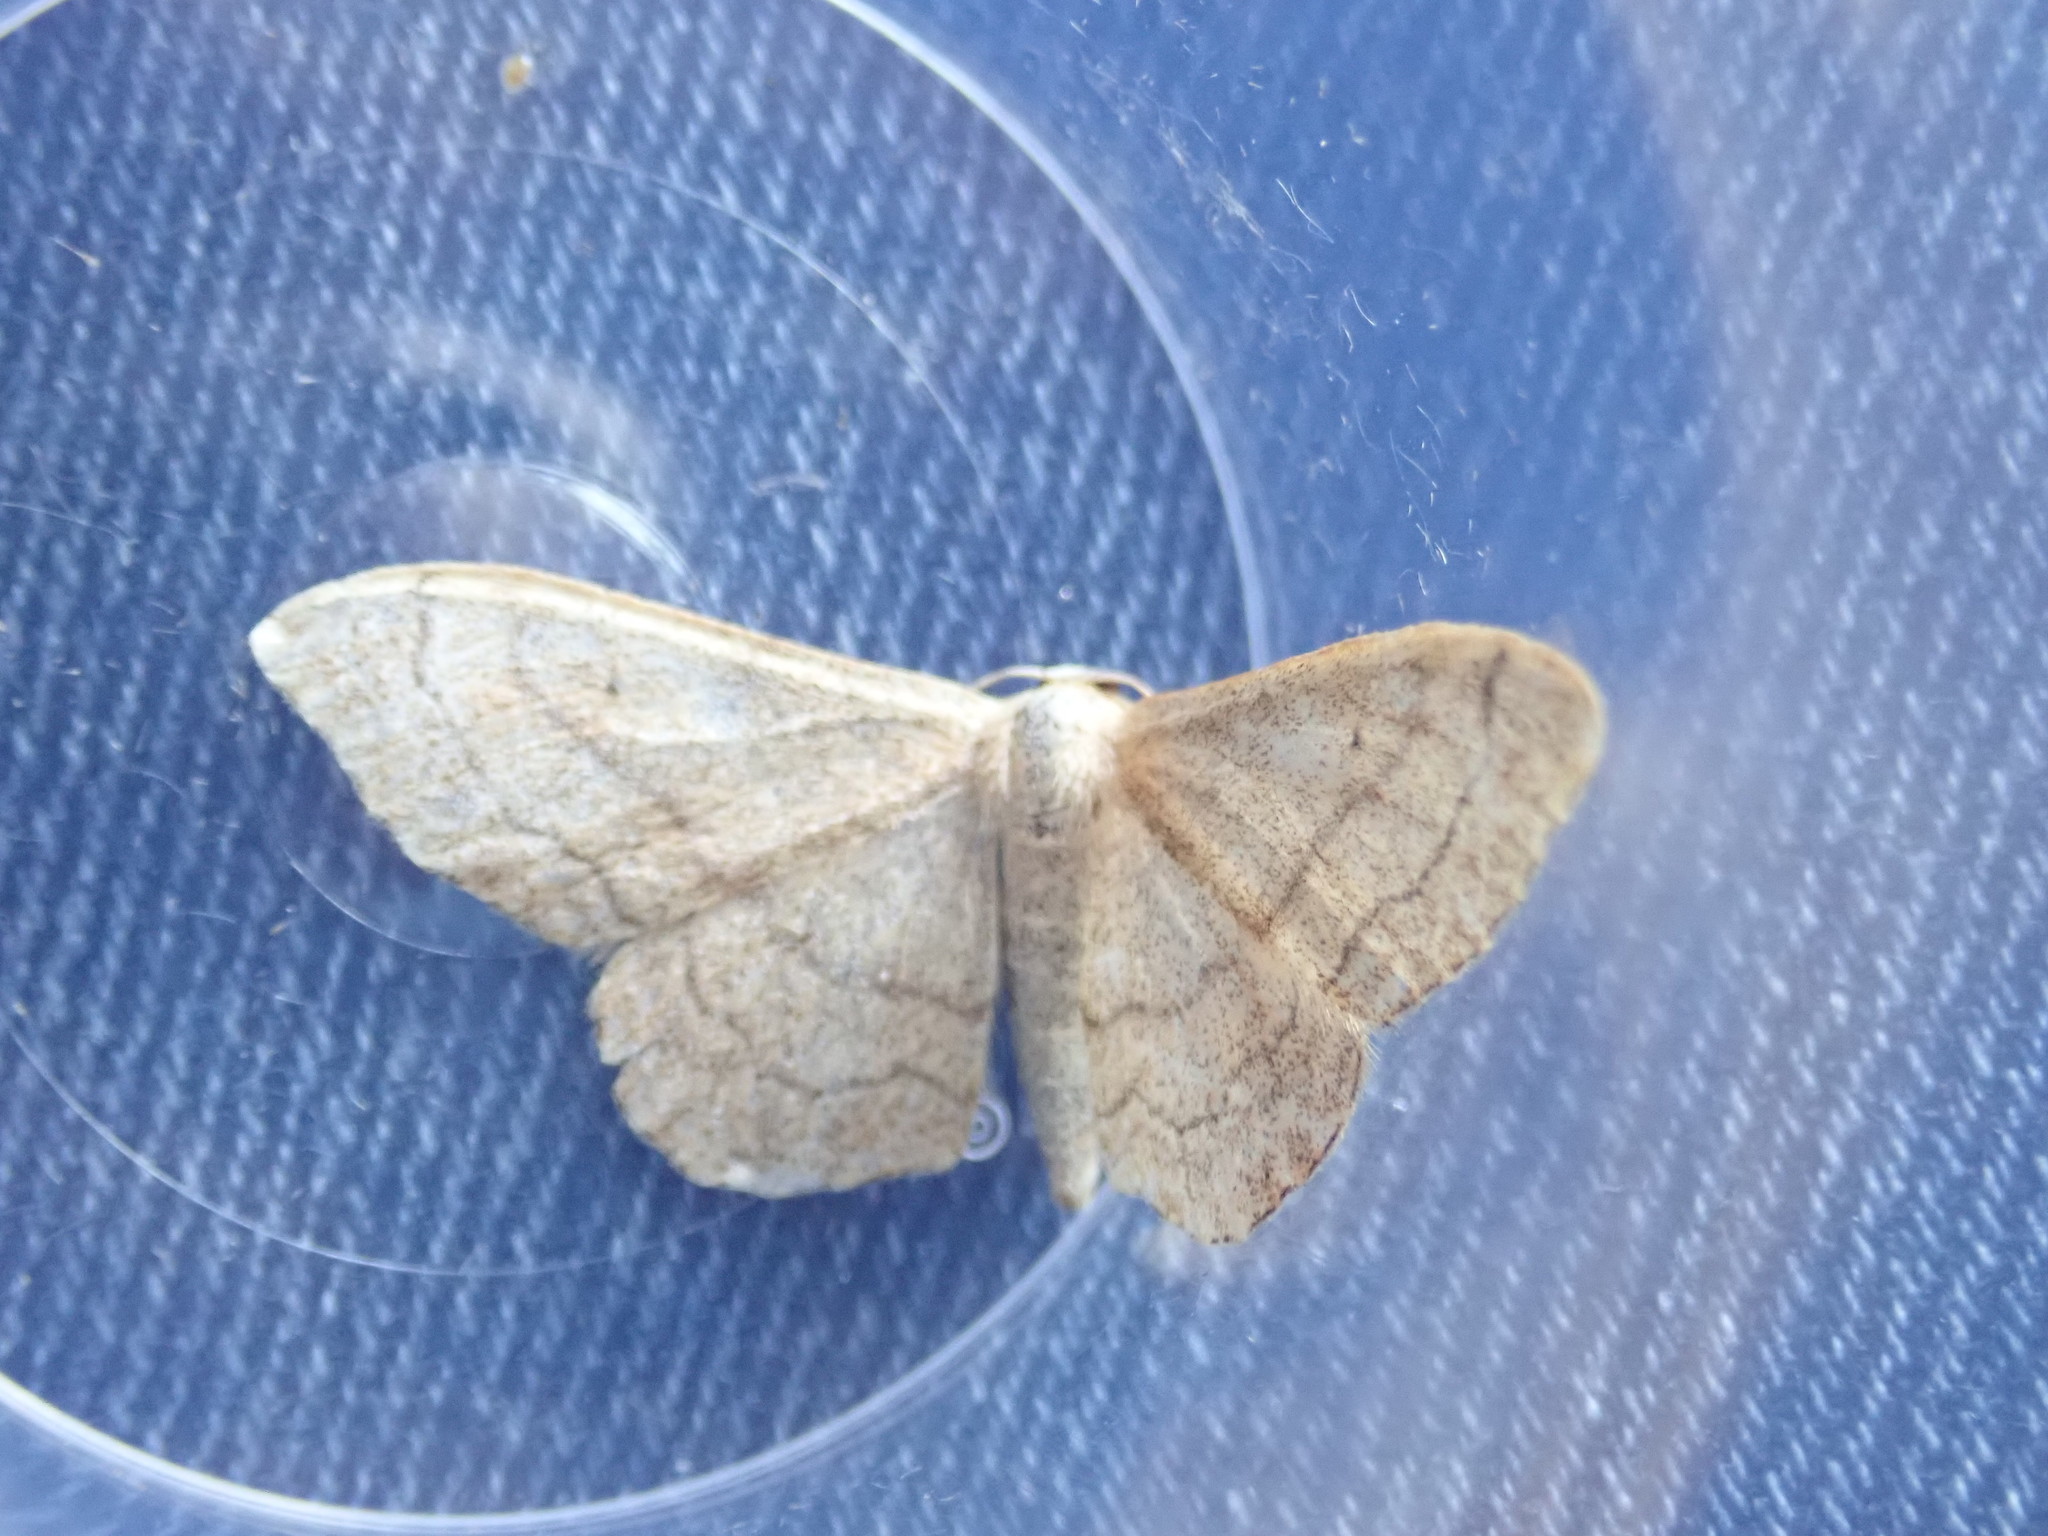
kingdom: Animalia
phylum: Arthropoda
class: Insecta
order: Lepidoptera
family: Geometridae
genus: Idaea
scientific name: Idaea aversata
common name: Riband wave
